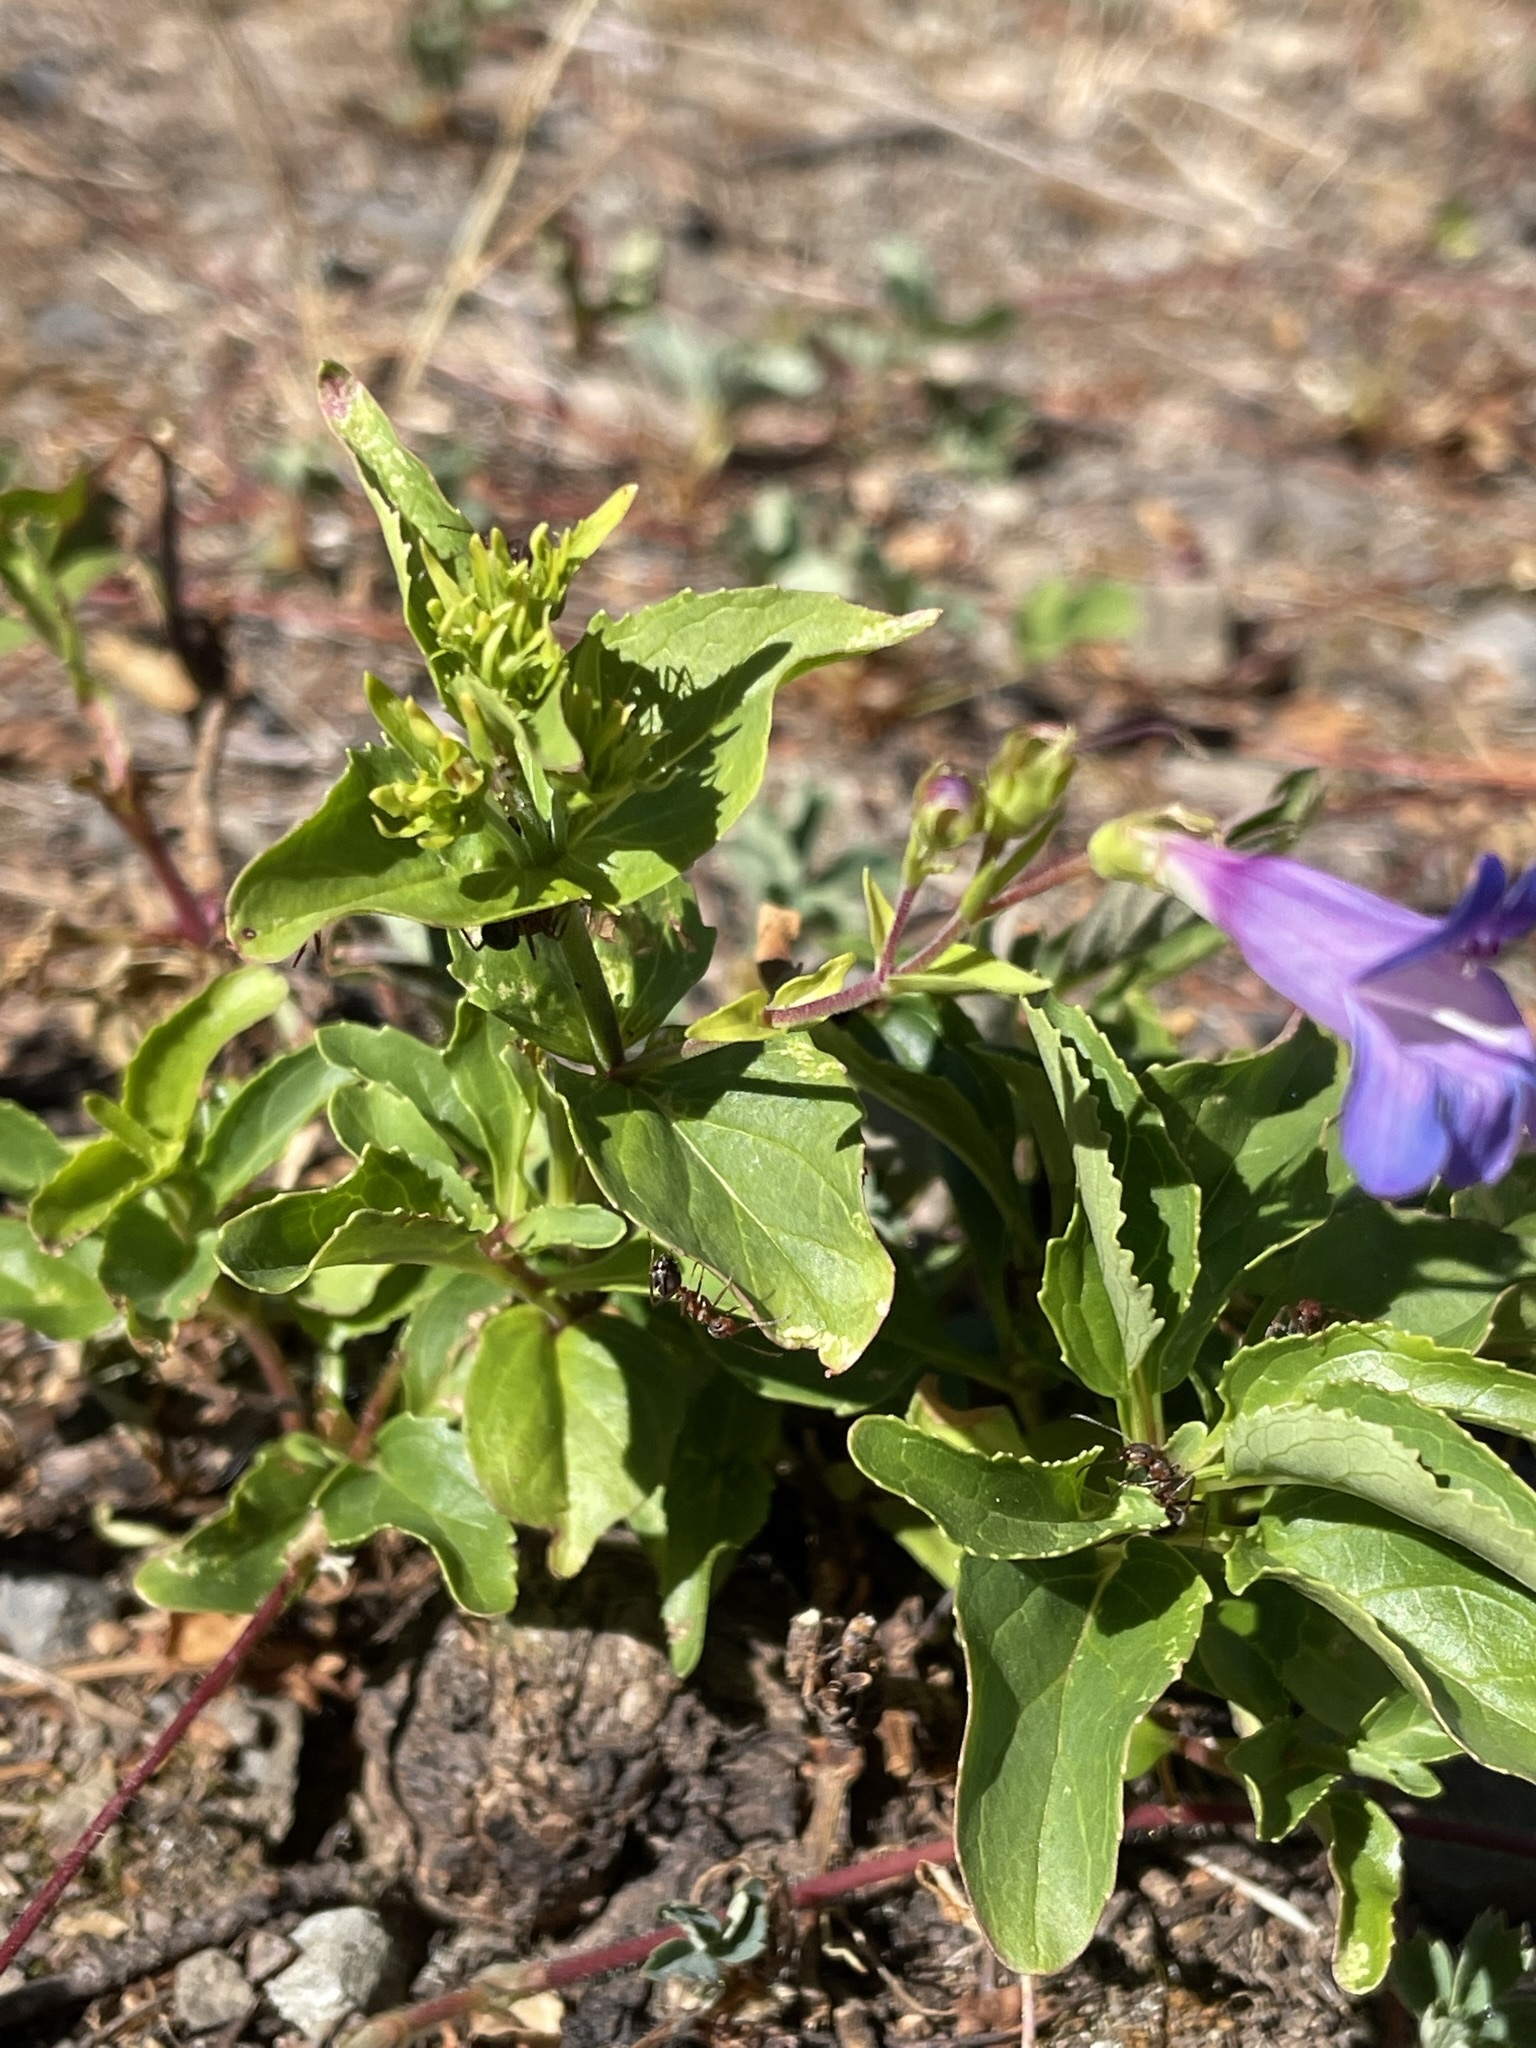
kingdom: Plantae
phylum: Tracheophyta
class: Magnoliopsida
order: Lamiales
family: Plantaginaceae
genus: Penstemon
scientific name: Penstemon serrulatus
